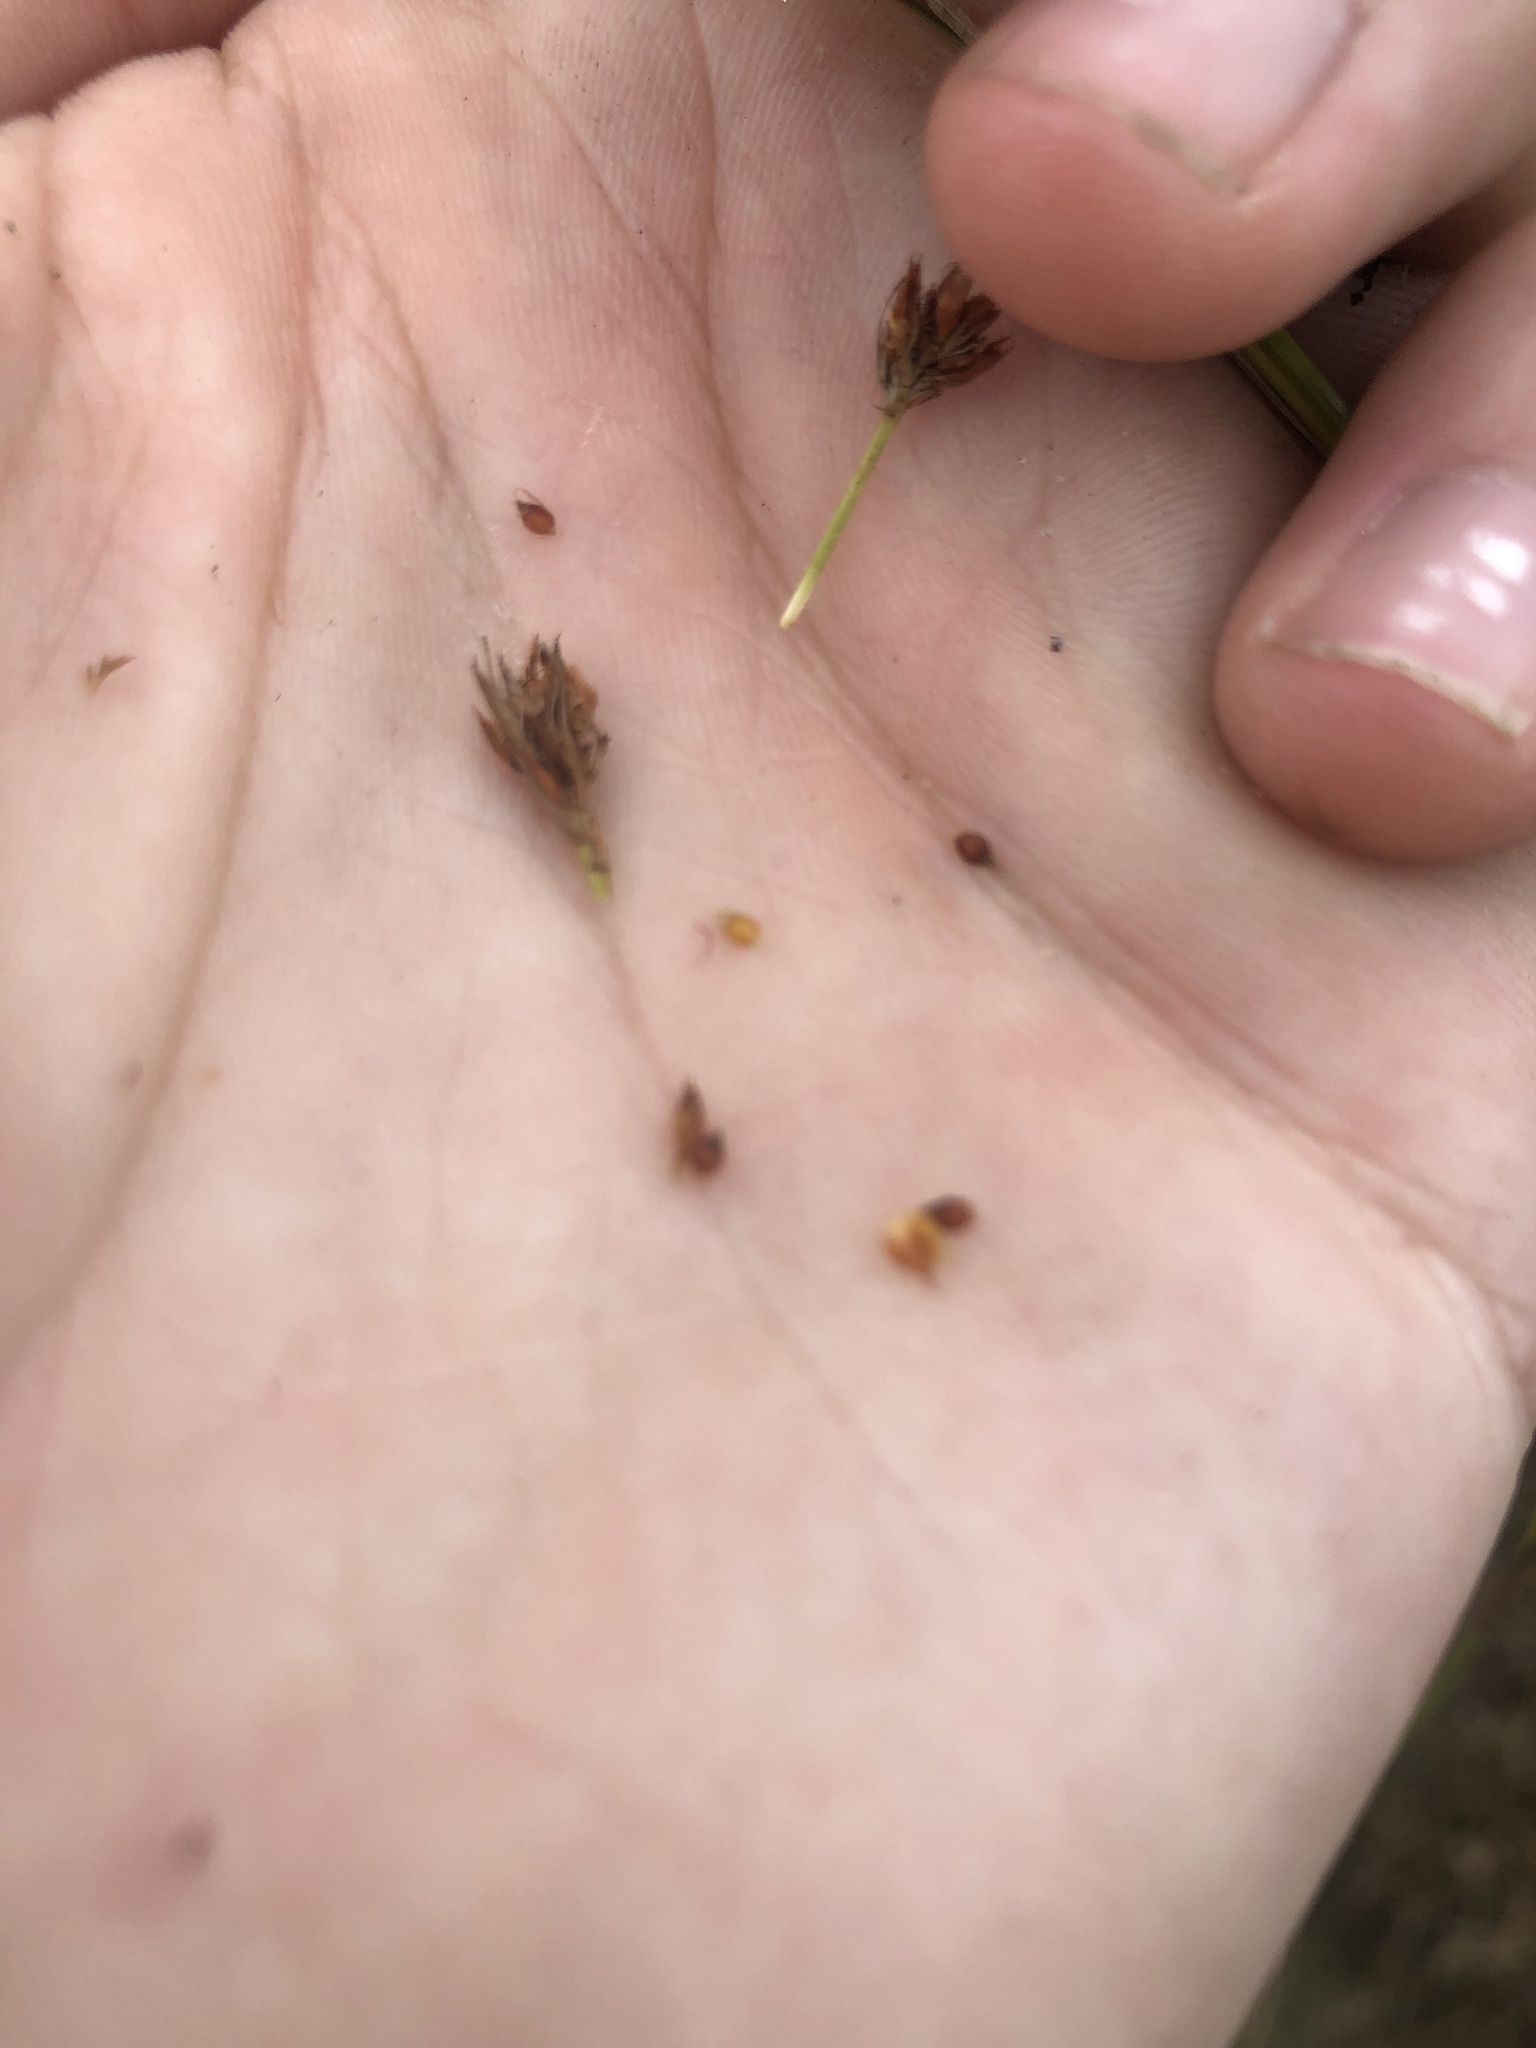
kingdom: Plantae
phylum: Tracheophyta
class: Liliopsida
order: Poales
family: Cyperaceae
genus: Rhynchospora
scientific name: Rhynchospora fascicularis
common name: Fascicled beak sedge
